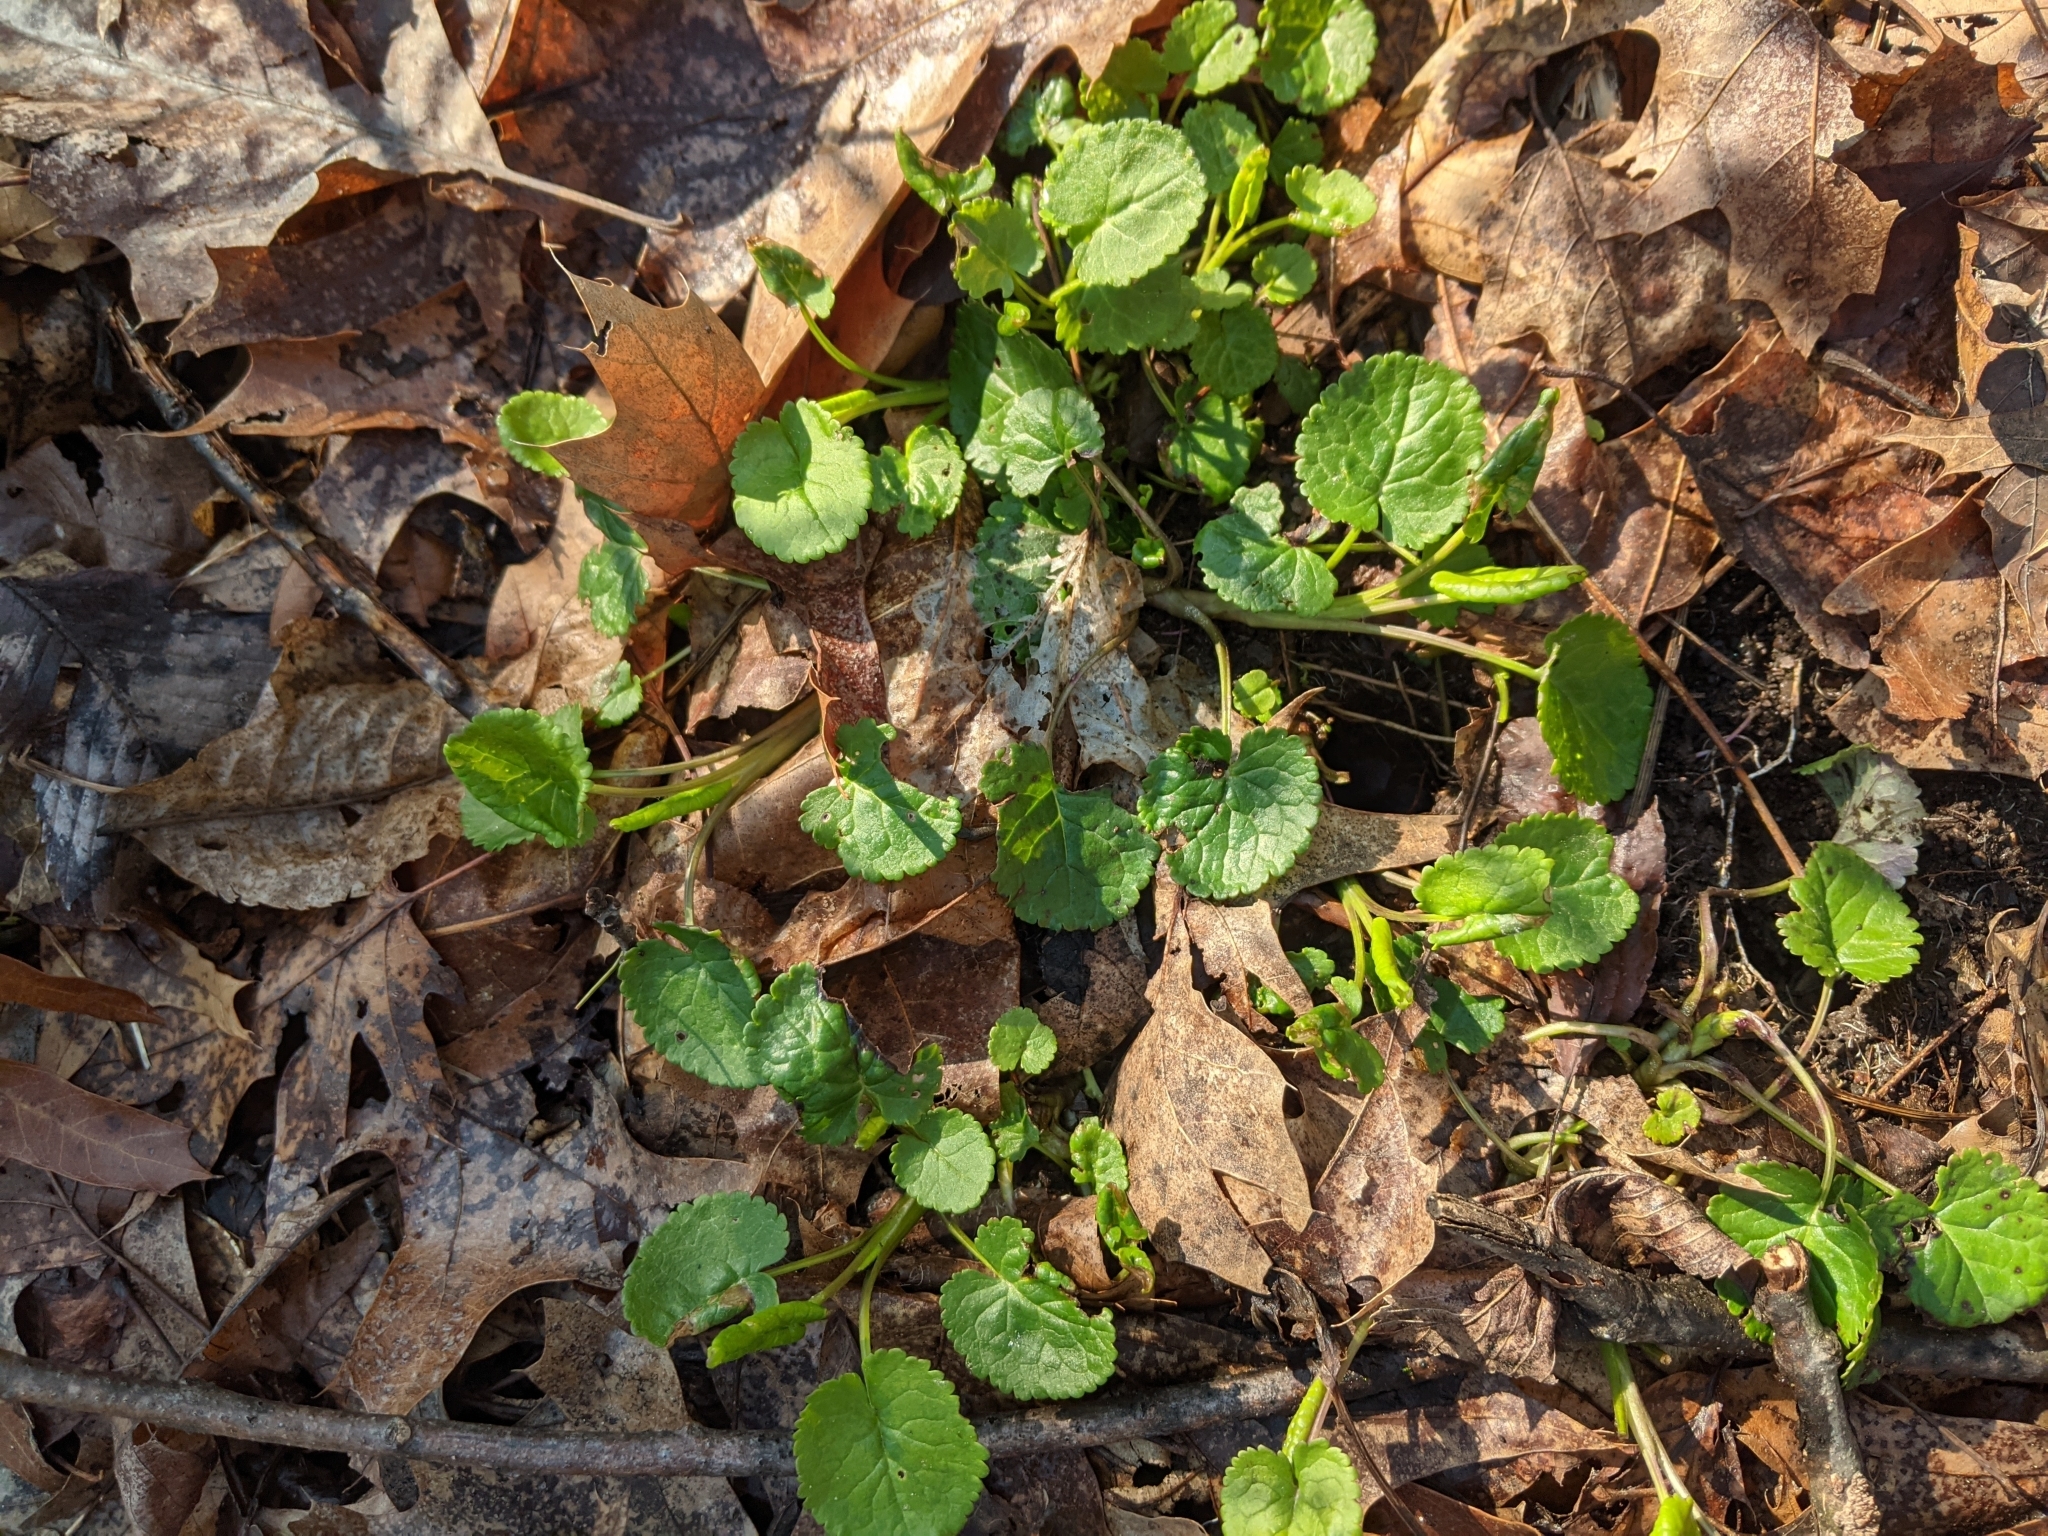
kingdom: Plantae
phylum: Tracheophyta
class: Magnoliopsida
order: Asterales
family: Asteraceae
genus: Packera
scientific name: Packera aurea
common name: Golden groundsel
